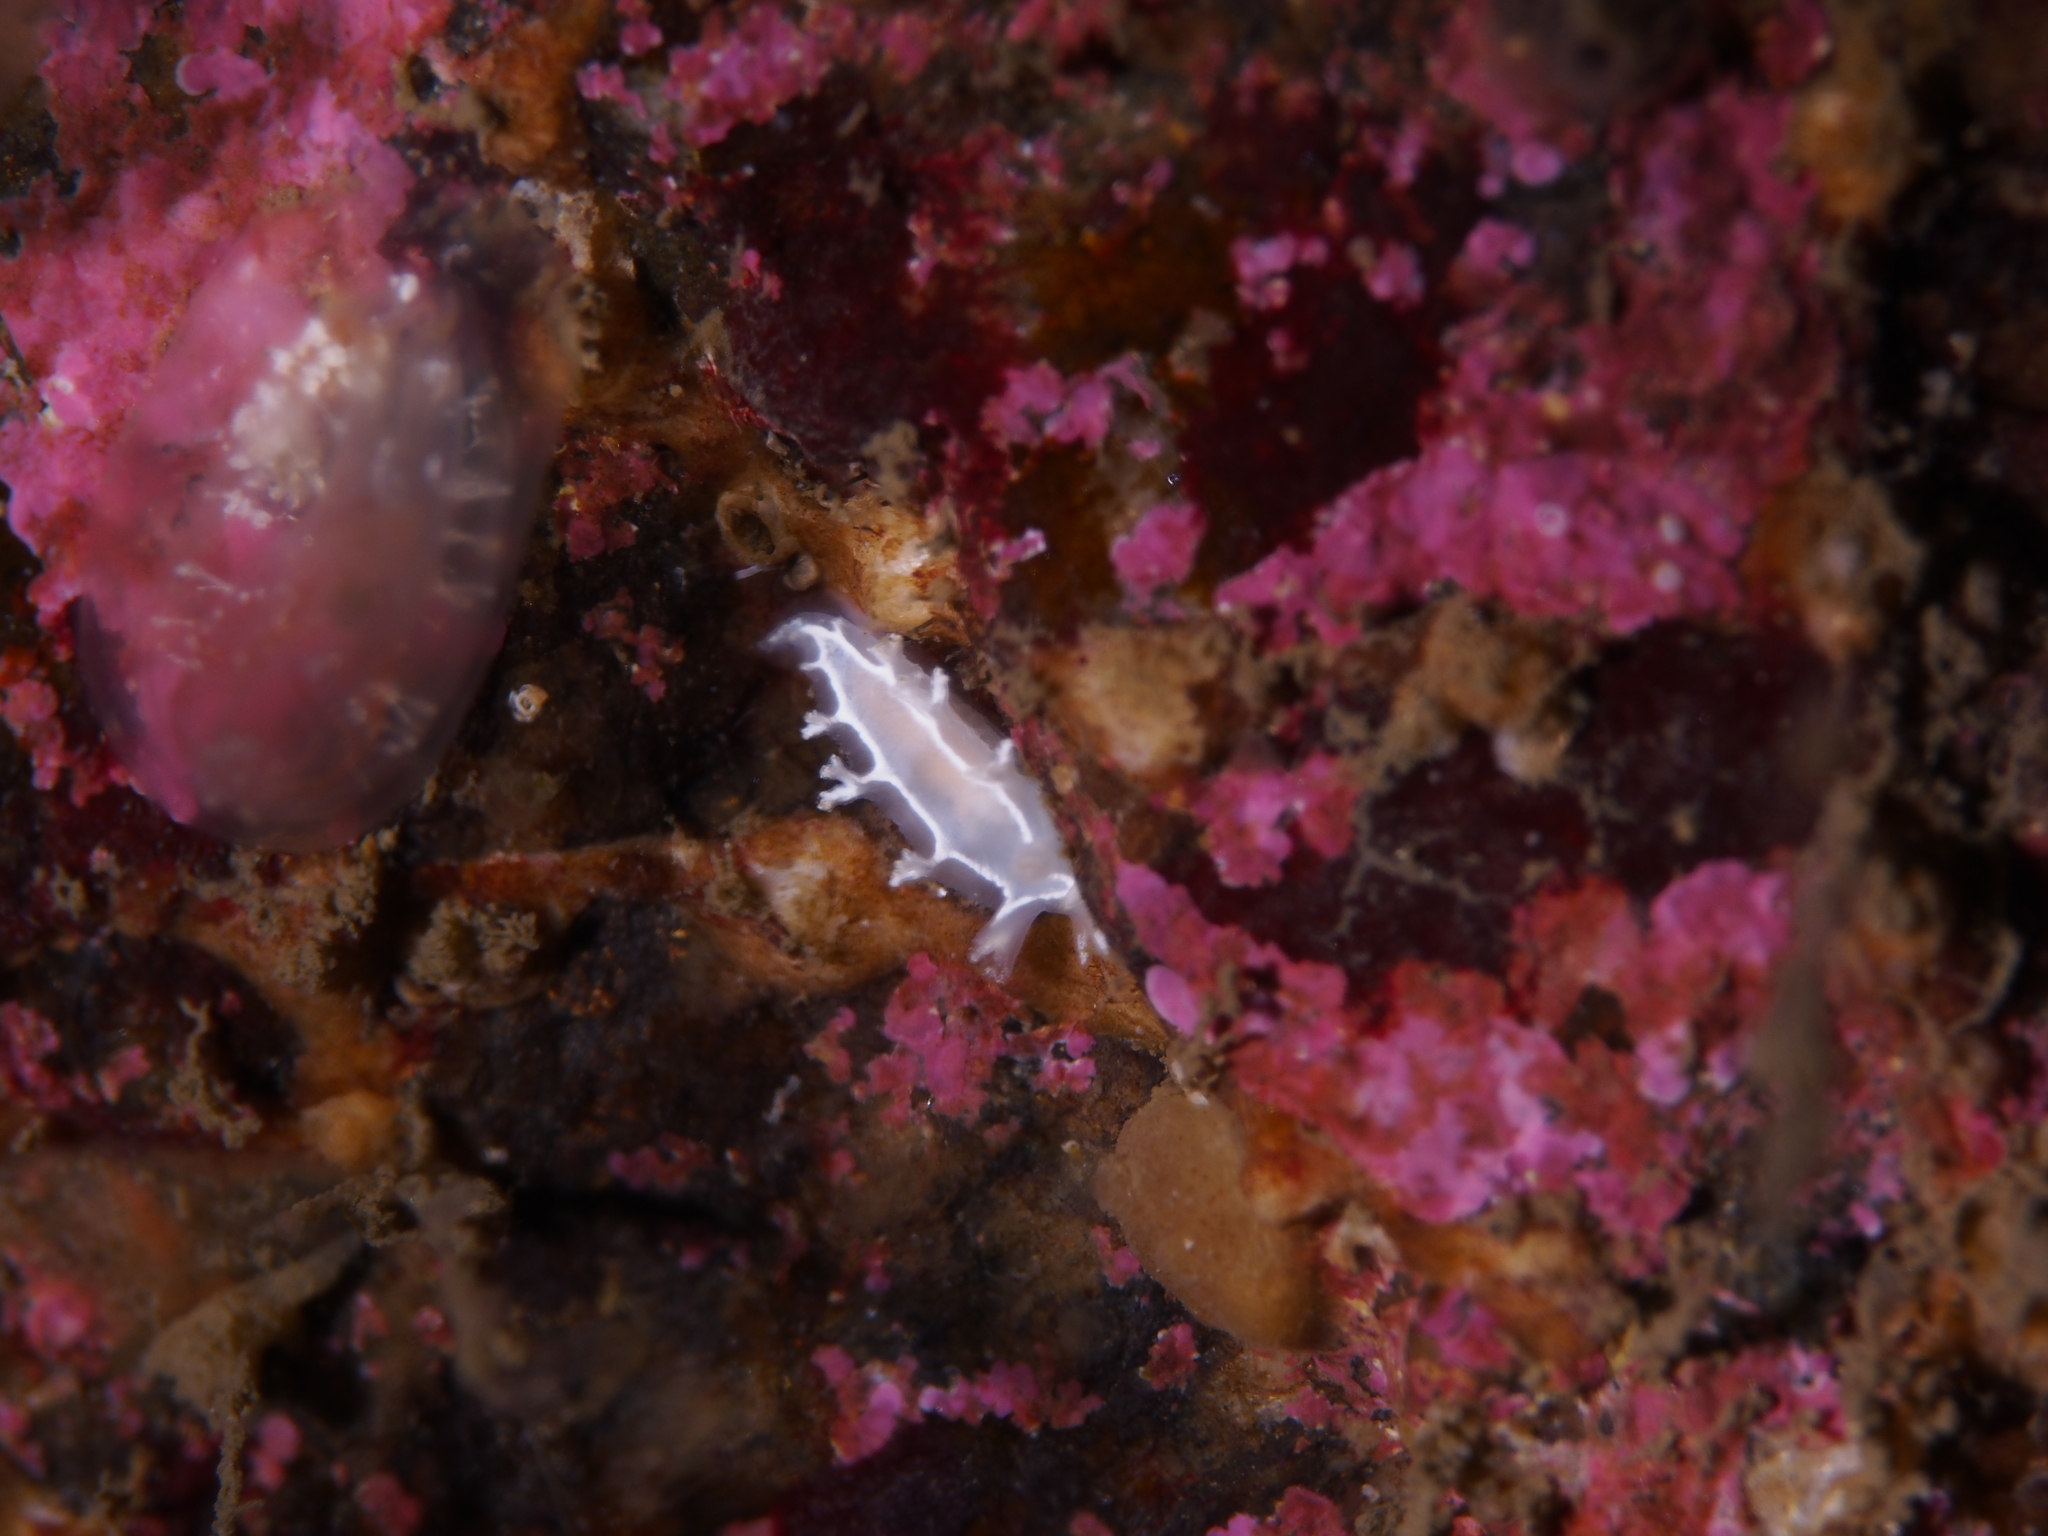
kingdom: Animalia
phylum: Mollusca
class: Gastropoda
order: Nudibranchia
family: Tritoniidae
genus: Duvaucelia
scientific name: Duvaucelia lineata
